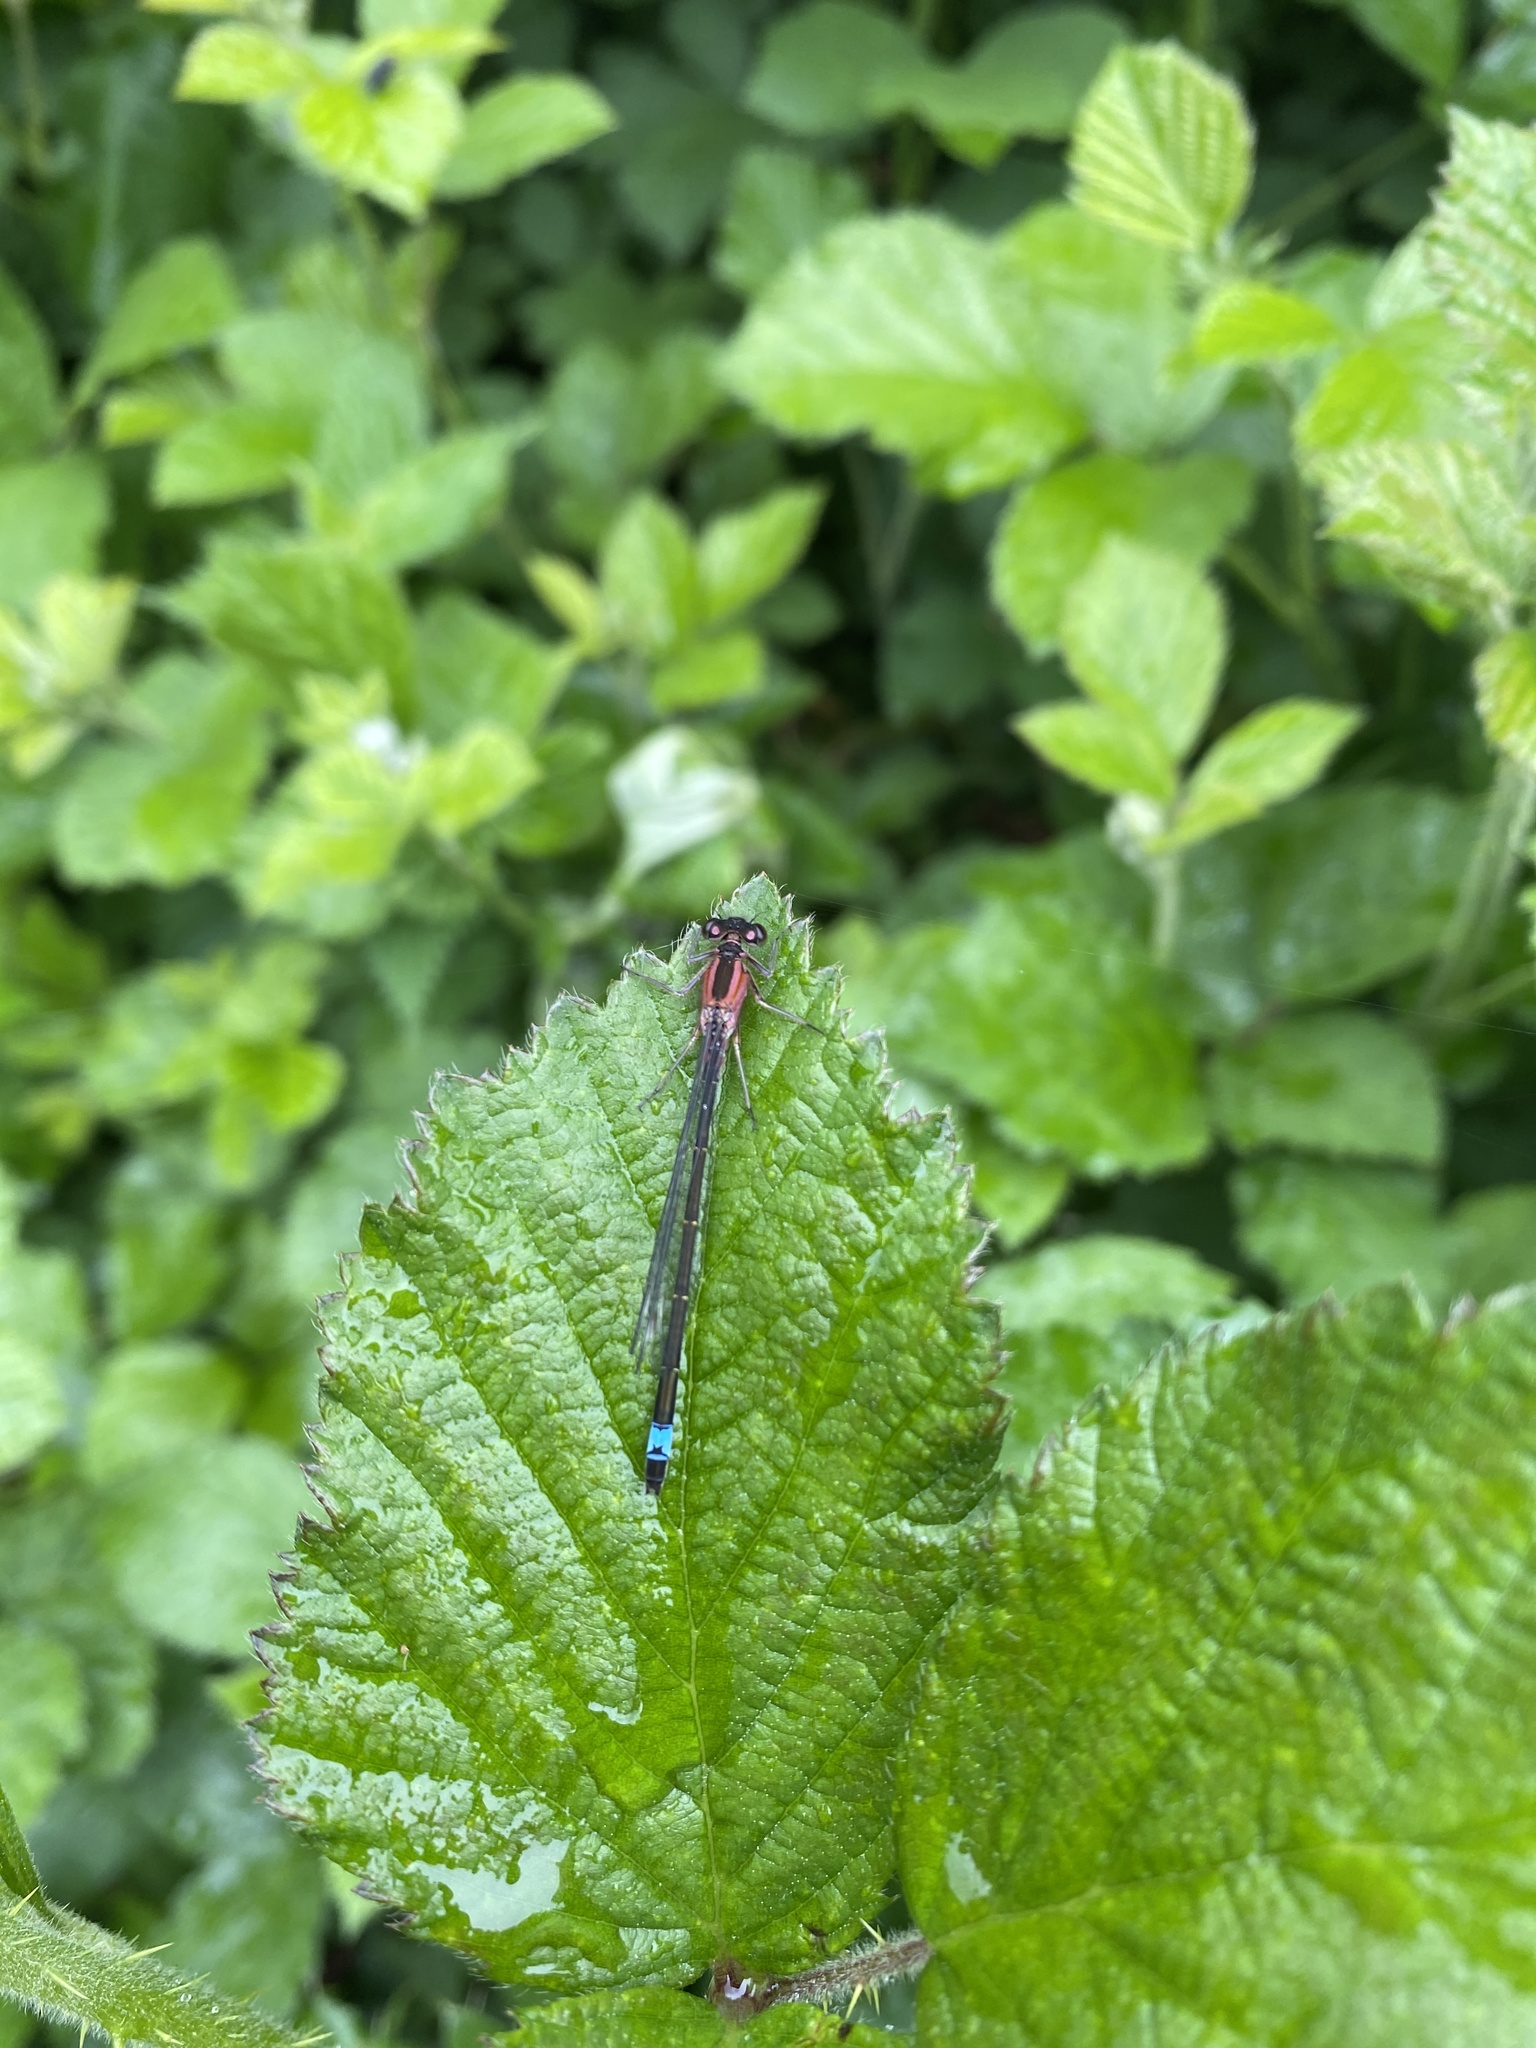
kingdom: Animalia
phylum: Arthropoda
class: Insecta
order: Odonata
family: Coenagrionidae
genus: Ischnura
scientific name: Ischnura elegans
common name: Blue-tailed damselfly
